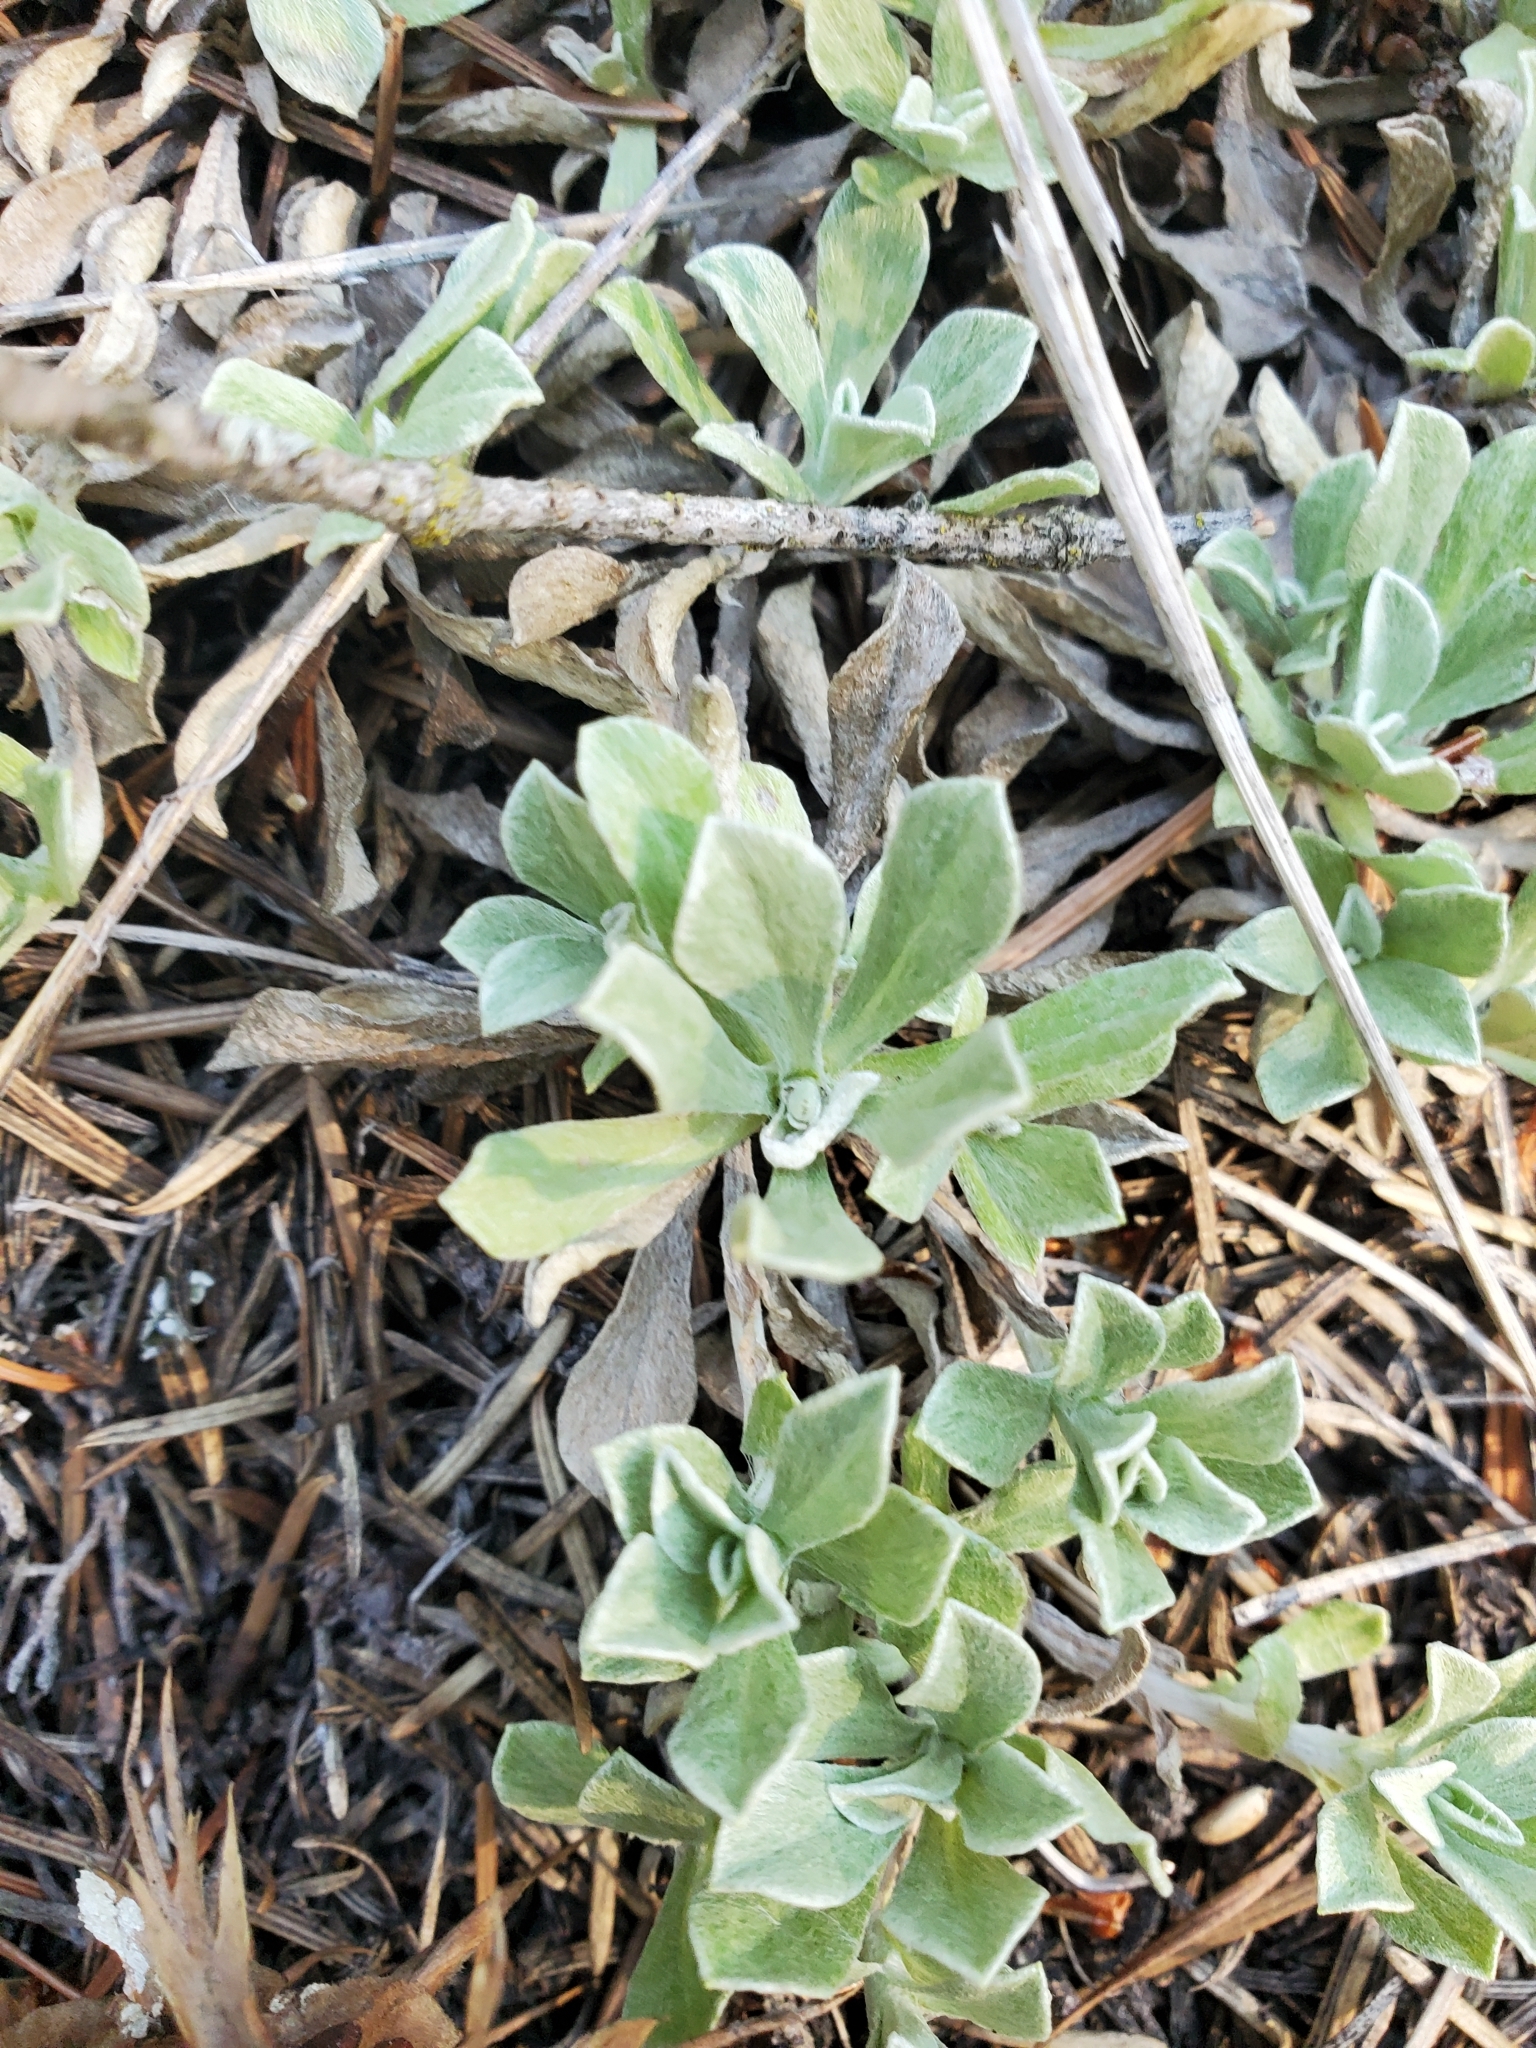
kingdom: Plantae
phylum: Tracheophyta
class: Magnoliopsida
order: Asterales
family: Asteraceae
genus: Antennaria
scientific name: Antennaria howellii
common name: Howell's pussytoes
